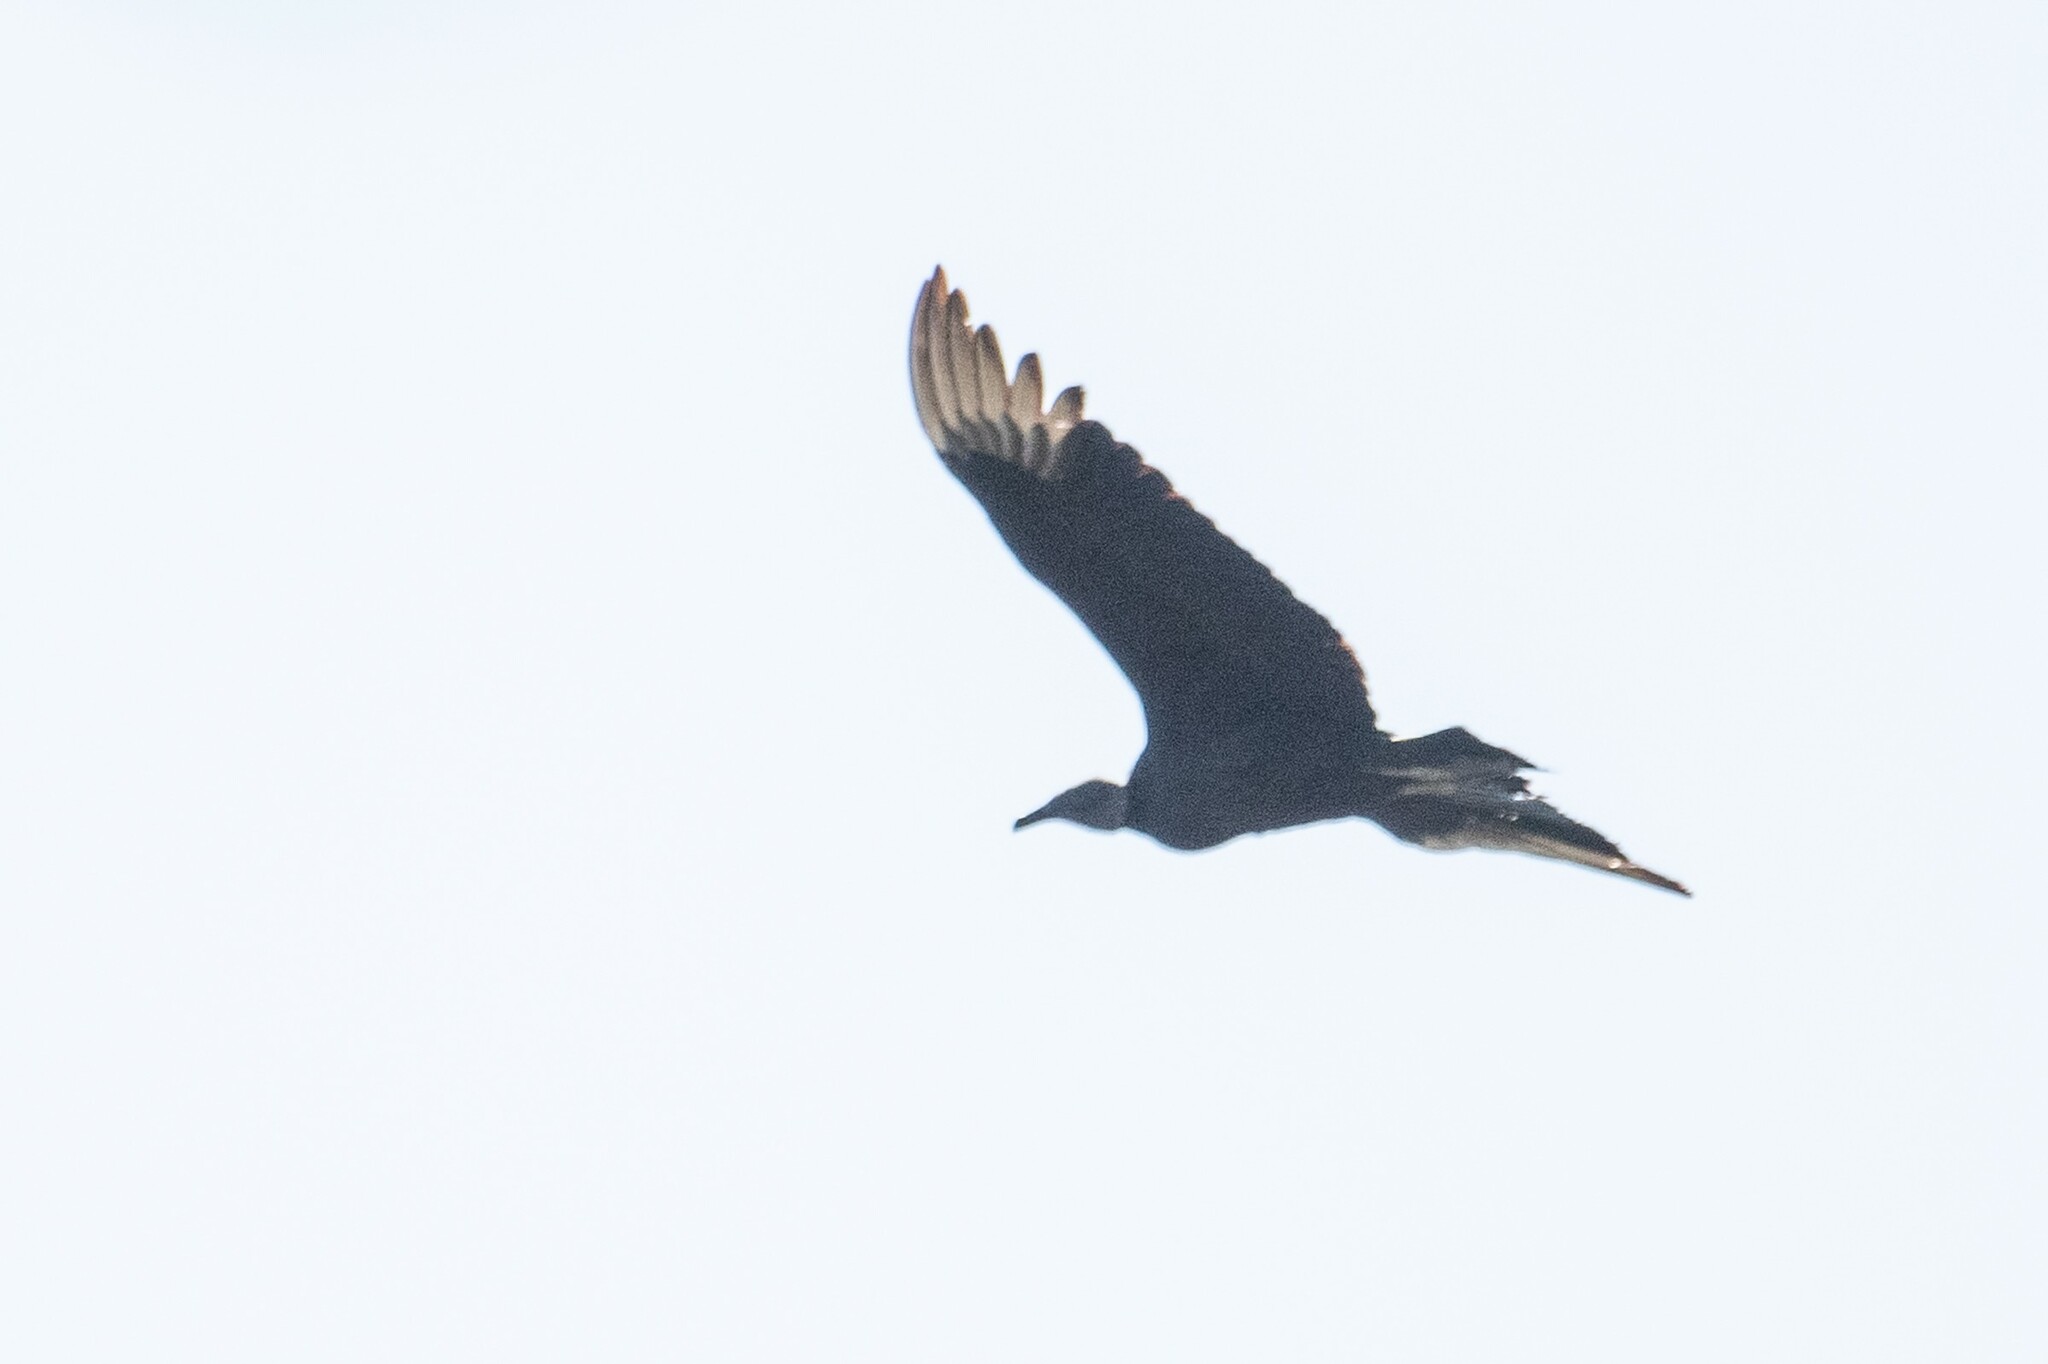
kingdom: Animalia
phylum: Chordata
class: Aves
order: Accipitriformes
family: Cathartidae
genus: Coragyps
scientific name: Coragyps atratus
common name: Black vulture
